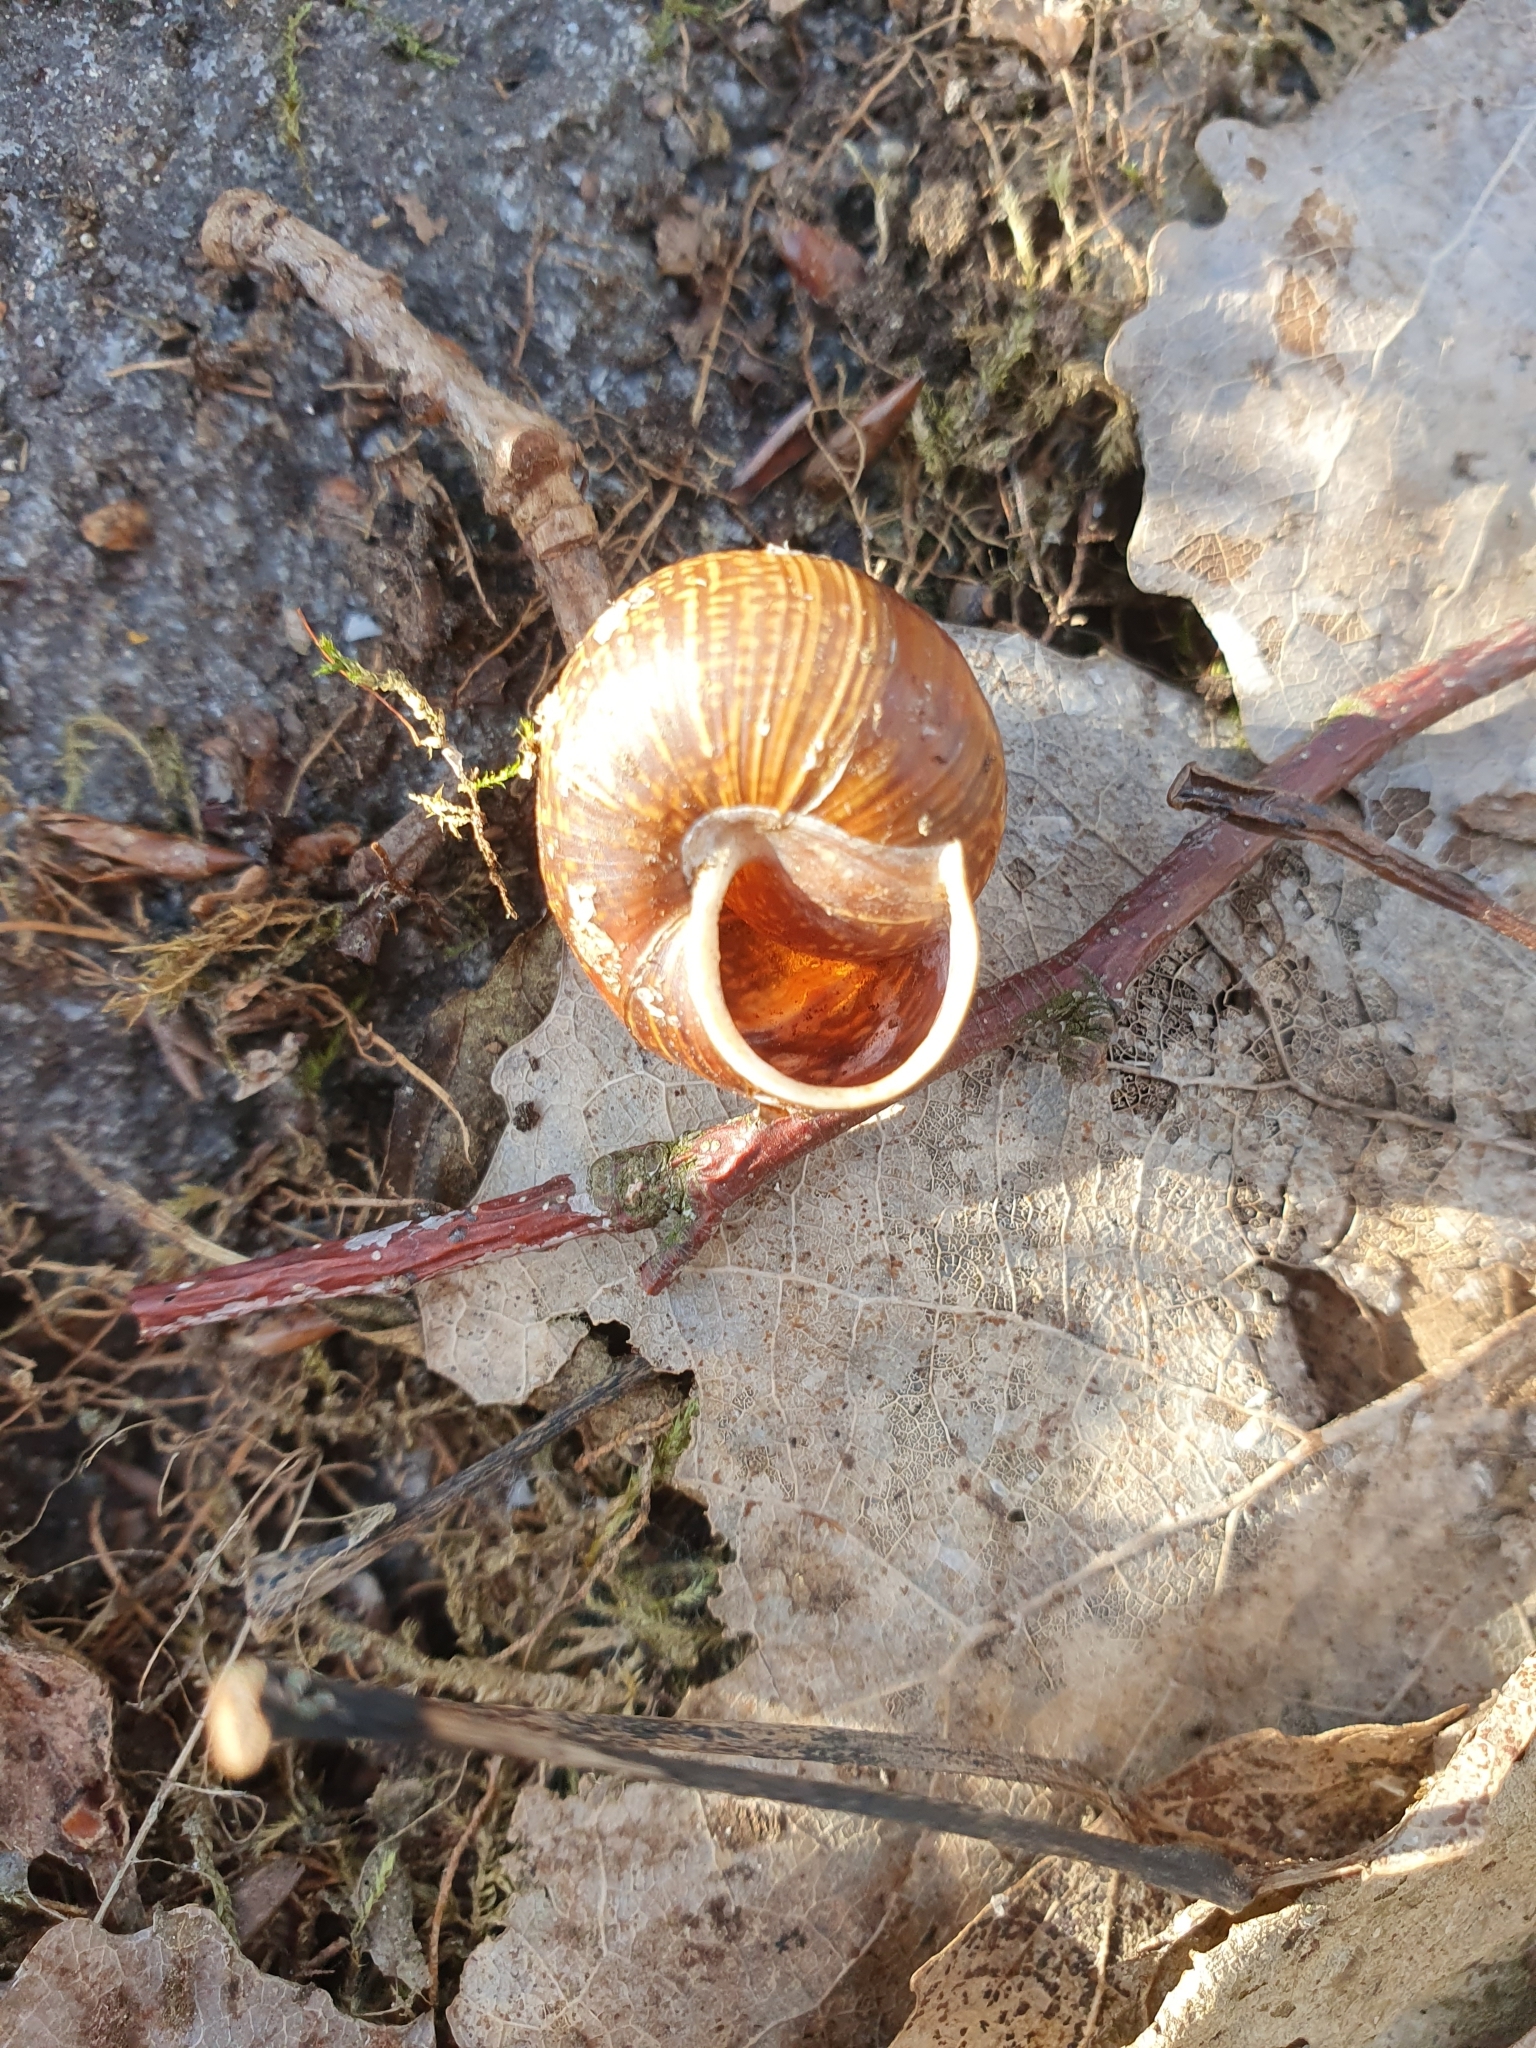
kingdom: Animalia
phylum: Mollusca
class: Gastropoda
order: Stylommatophora
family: Helicidae
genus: Arianta
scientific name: Arianta arbustorum
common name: Copse snail
